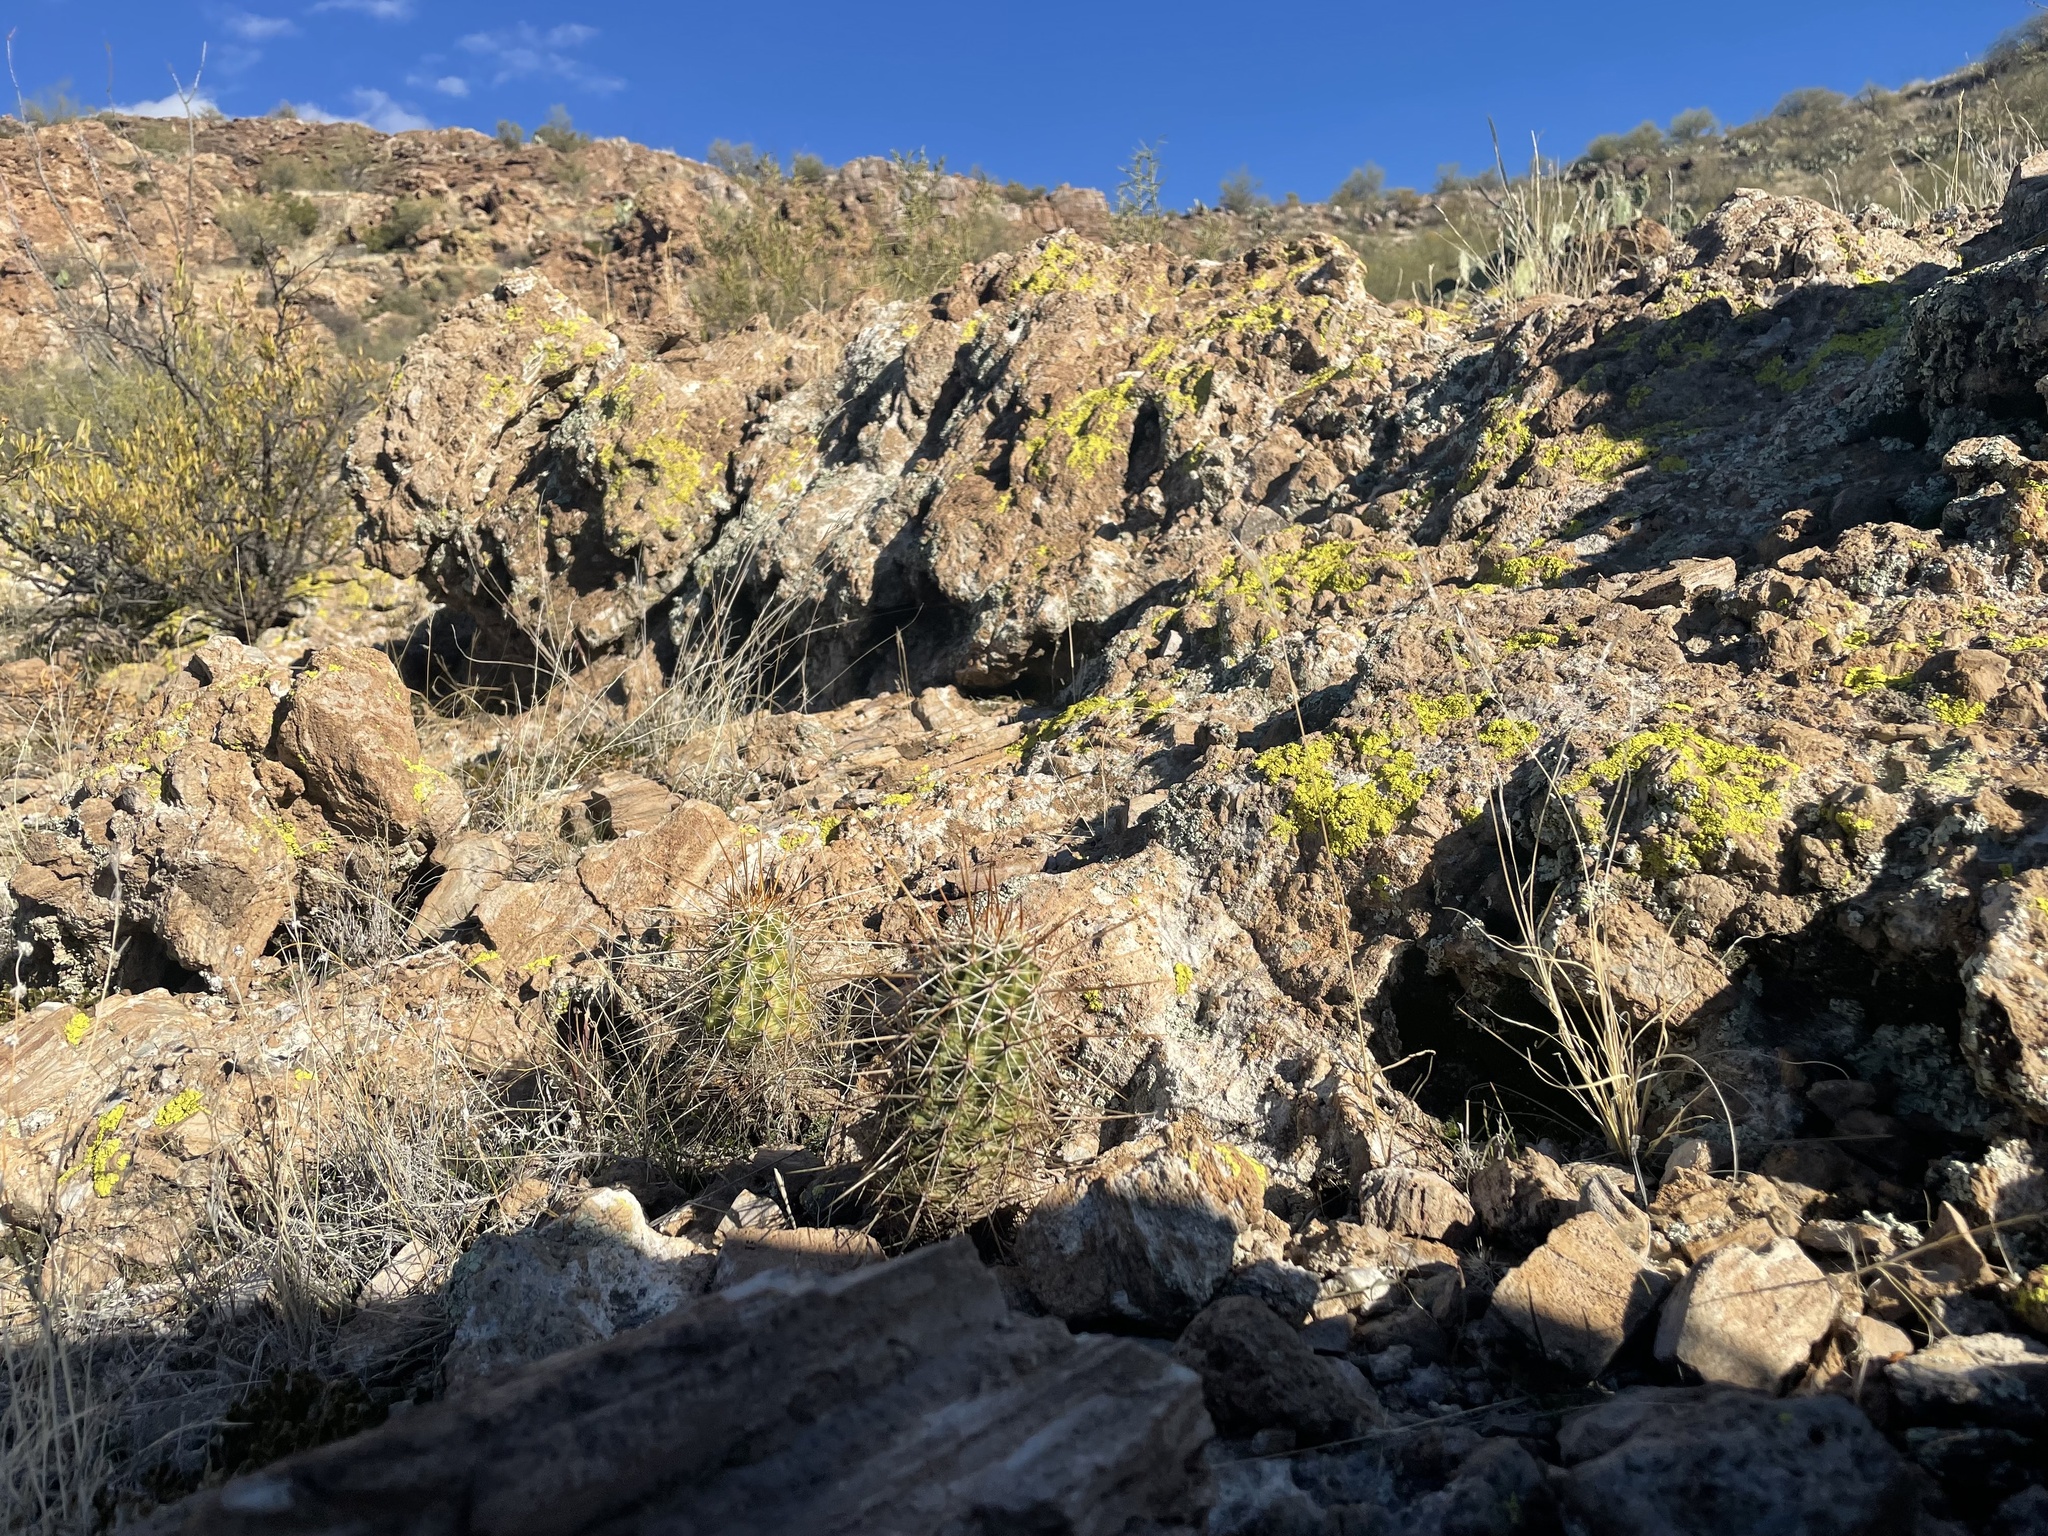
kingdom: Plantae
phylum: Tracheophyta
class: Magnoliopsida
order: Caryophyllales
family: Cactaceae
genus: Echinocereus
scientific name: Echinocereus fasciculatus
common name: Bundle hedgehog
